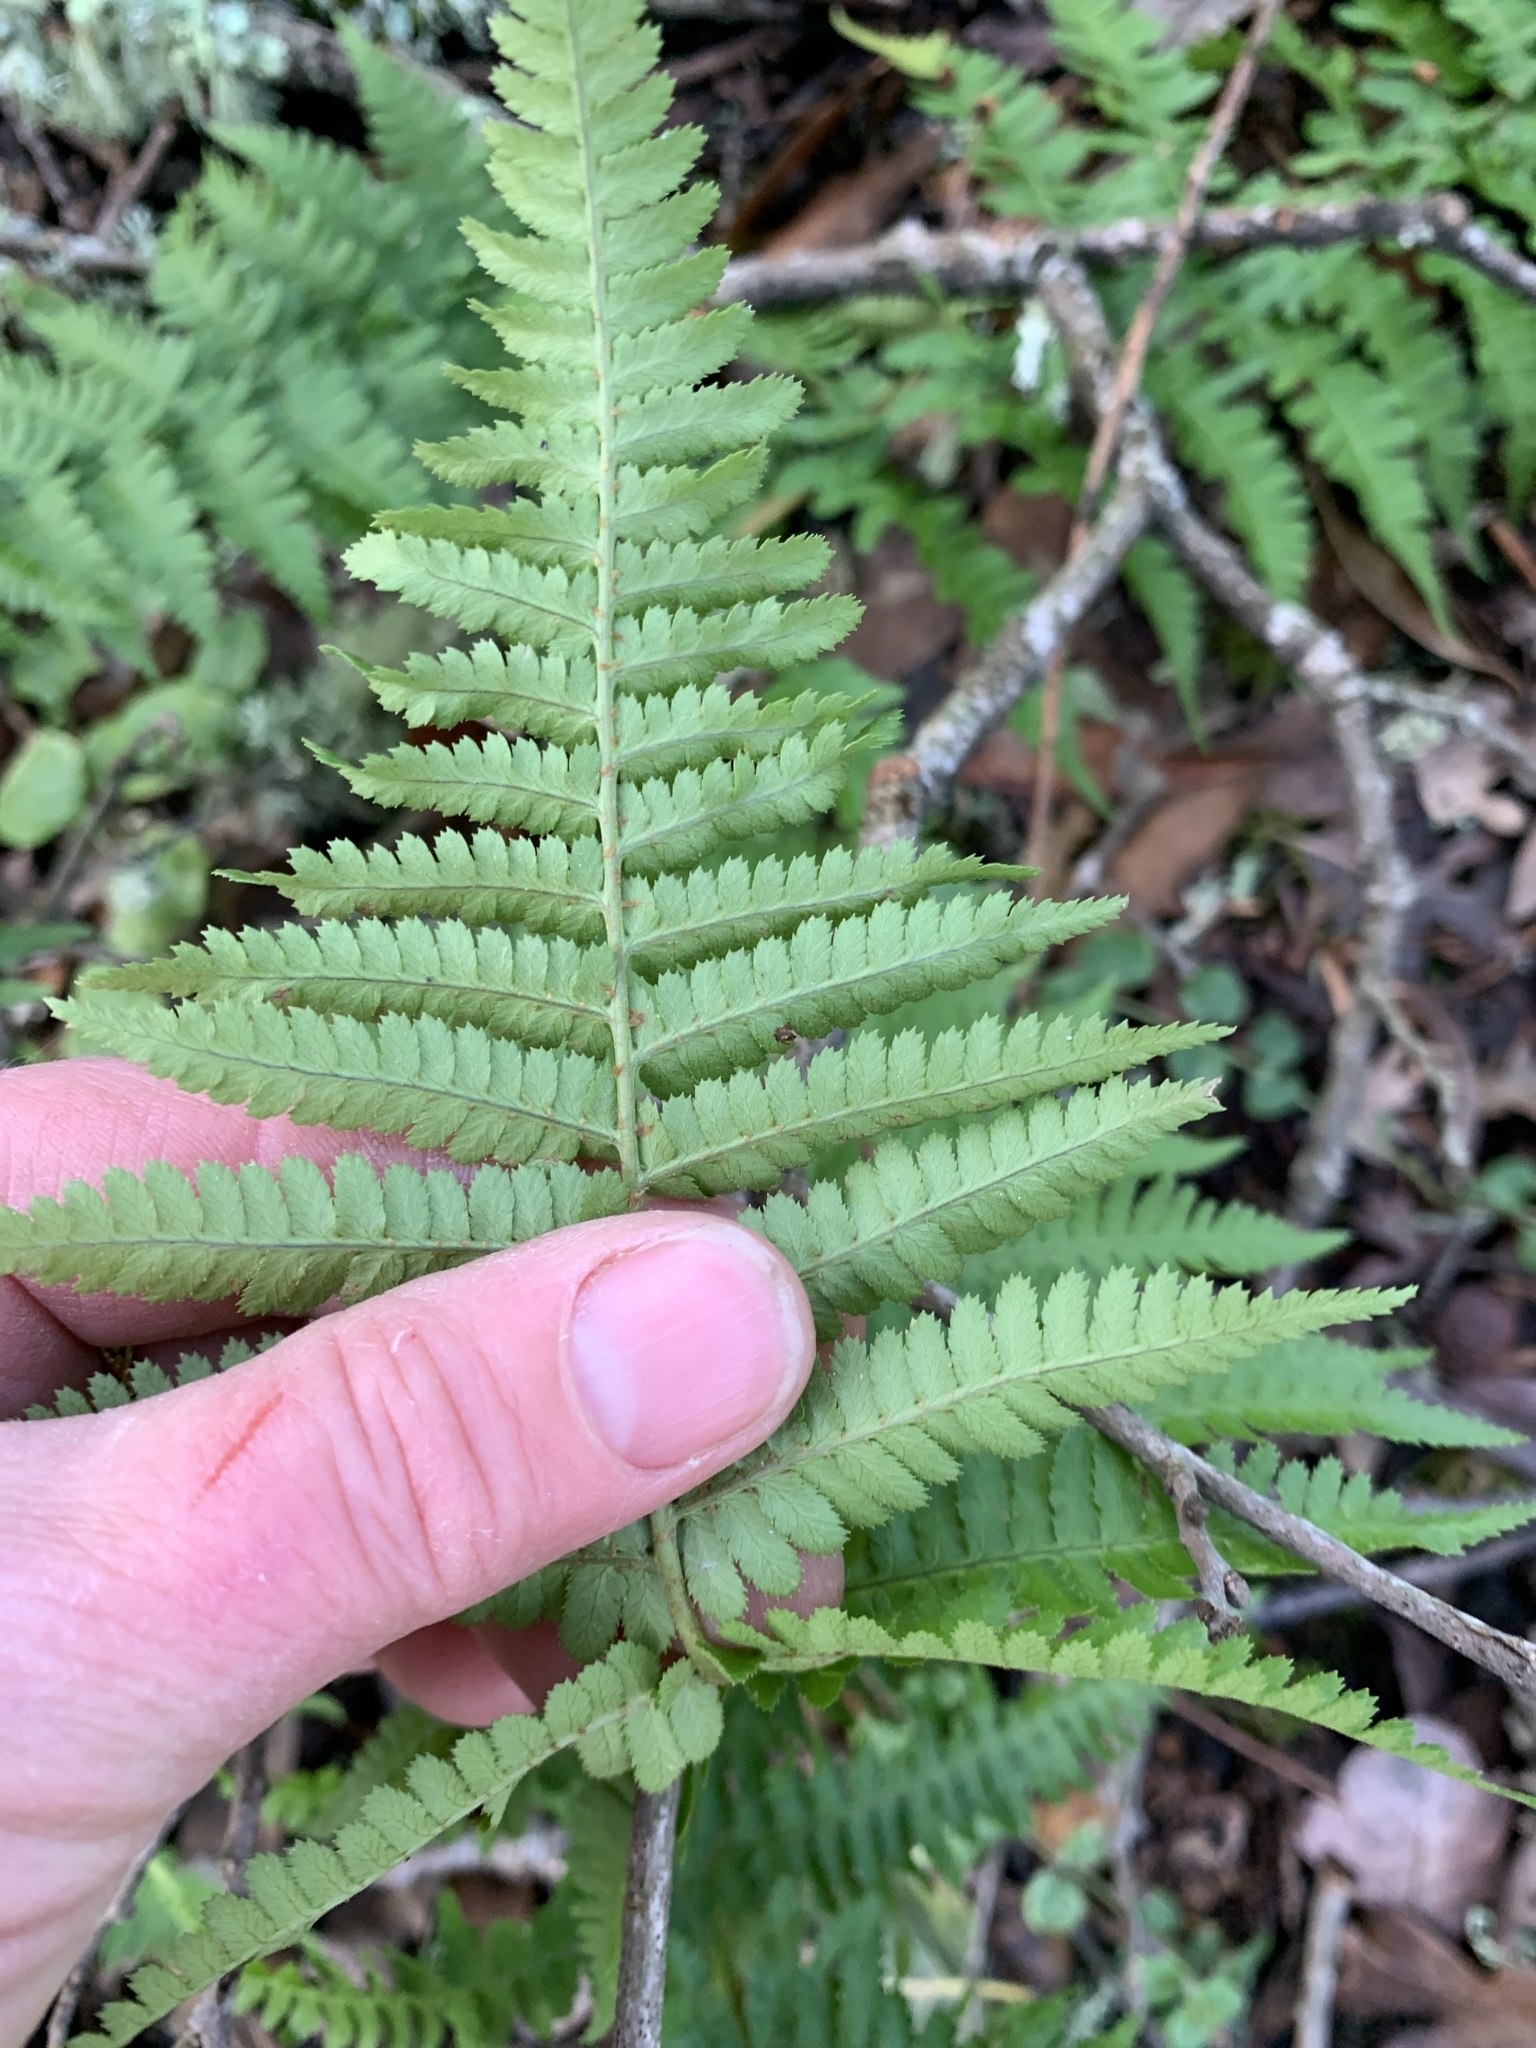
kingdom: Plantae
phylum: Tracheophyta
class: Polypodiopsida
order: Polypodiales
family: Dryopteridaceae
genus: Dryopteris
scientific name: Dryopteris arguta
